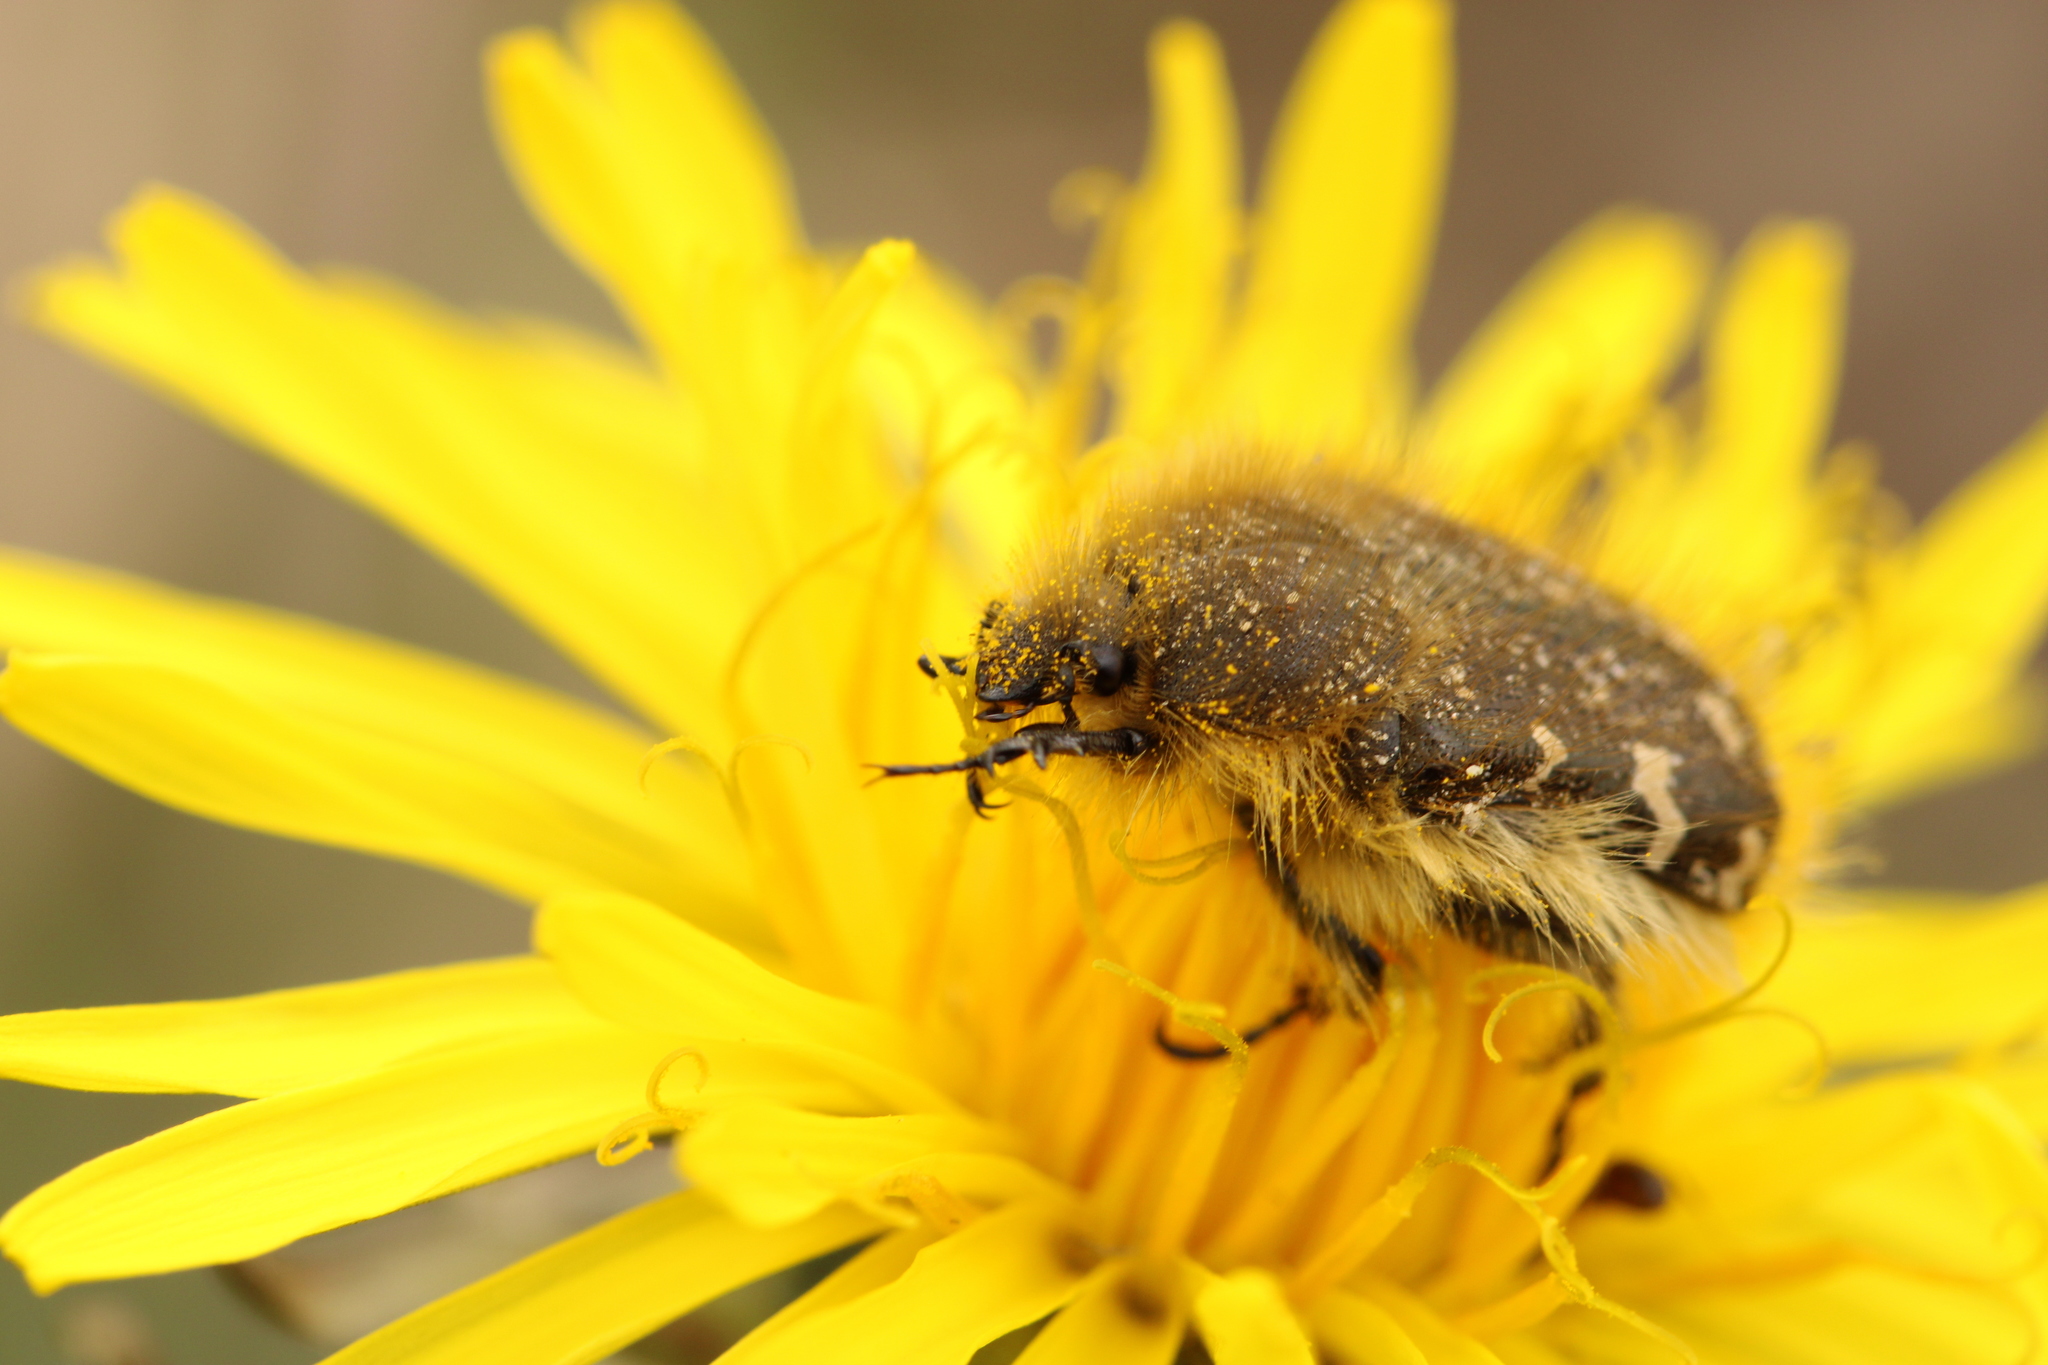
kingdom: Animalia
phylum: Arthropoda
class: Insecta
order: Coleoptera
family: Scarabaeidae
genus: Tropinota
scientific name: Tropinota hirta
